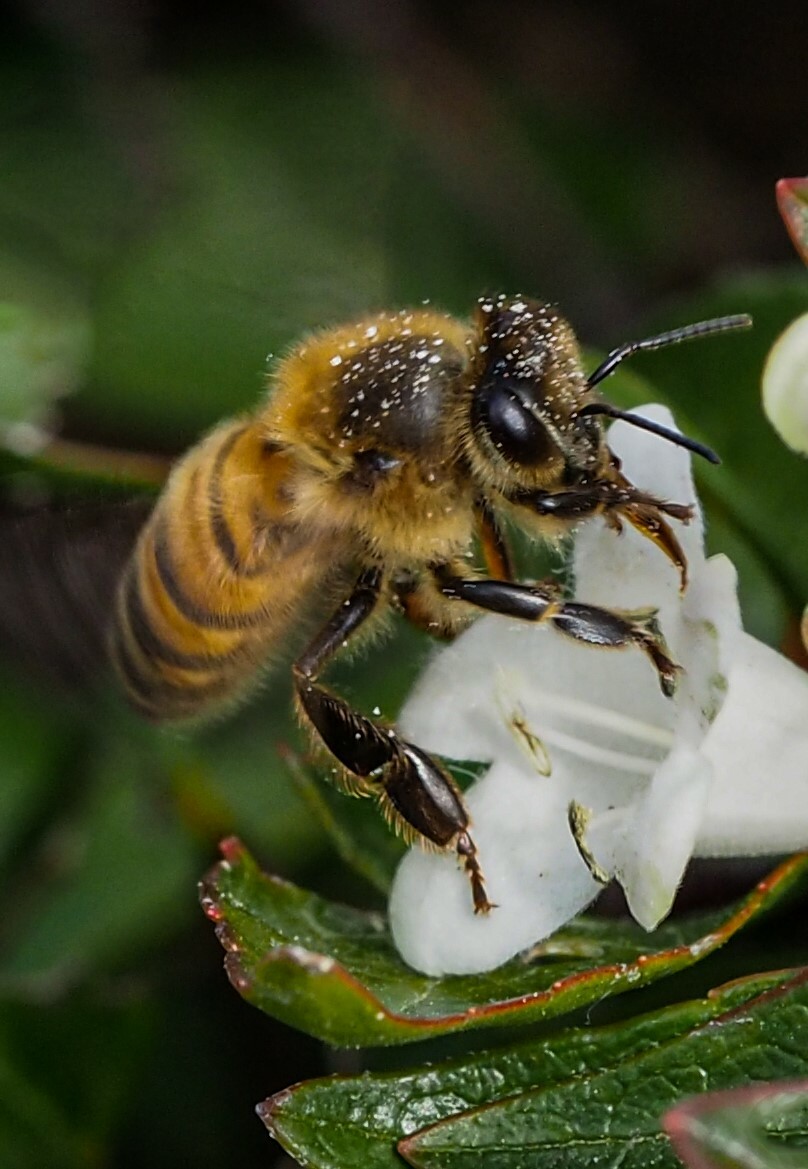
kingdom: Animalia
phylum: Arthropoda
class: Insecta
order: Hymenoptera
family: Apidae
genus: Apis
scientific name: Apis mellifera
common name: Honey bee
